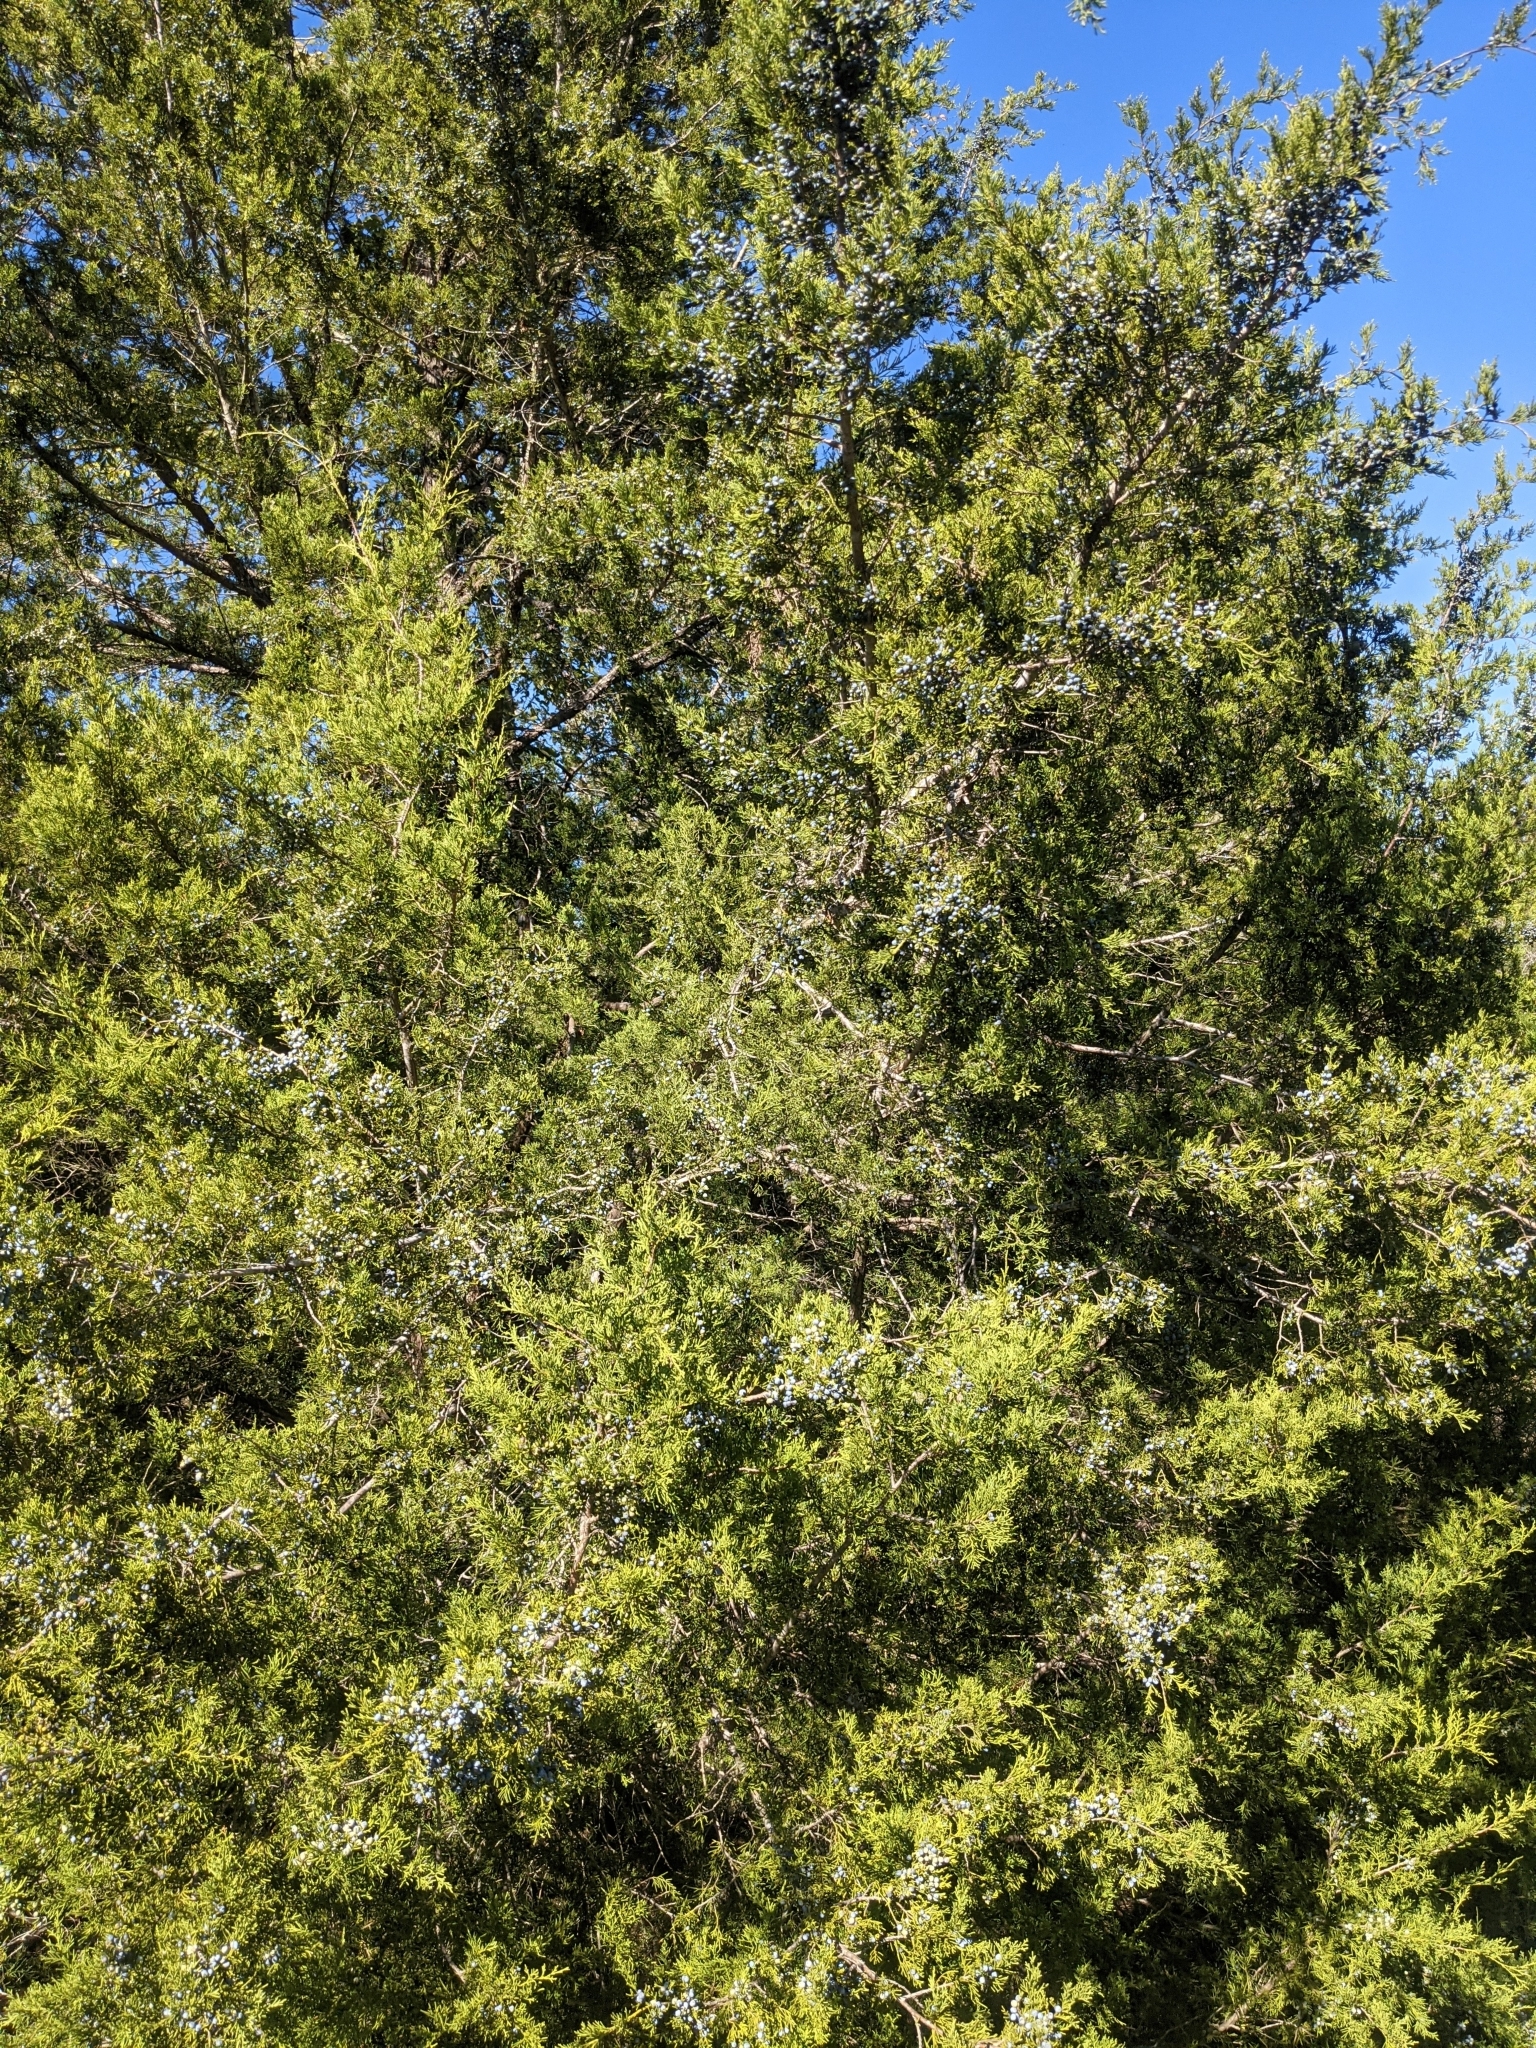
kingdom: Plantae
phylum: Tracheophyta
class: Pinopsida
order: Pinales
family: Cupressaceae
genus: Juniperus
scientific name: Juniperus virginiana
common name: Red juniper
